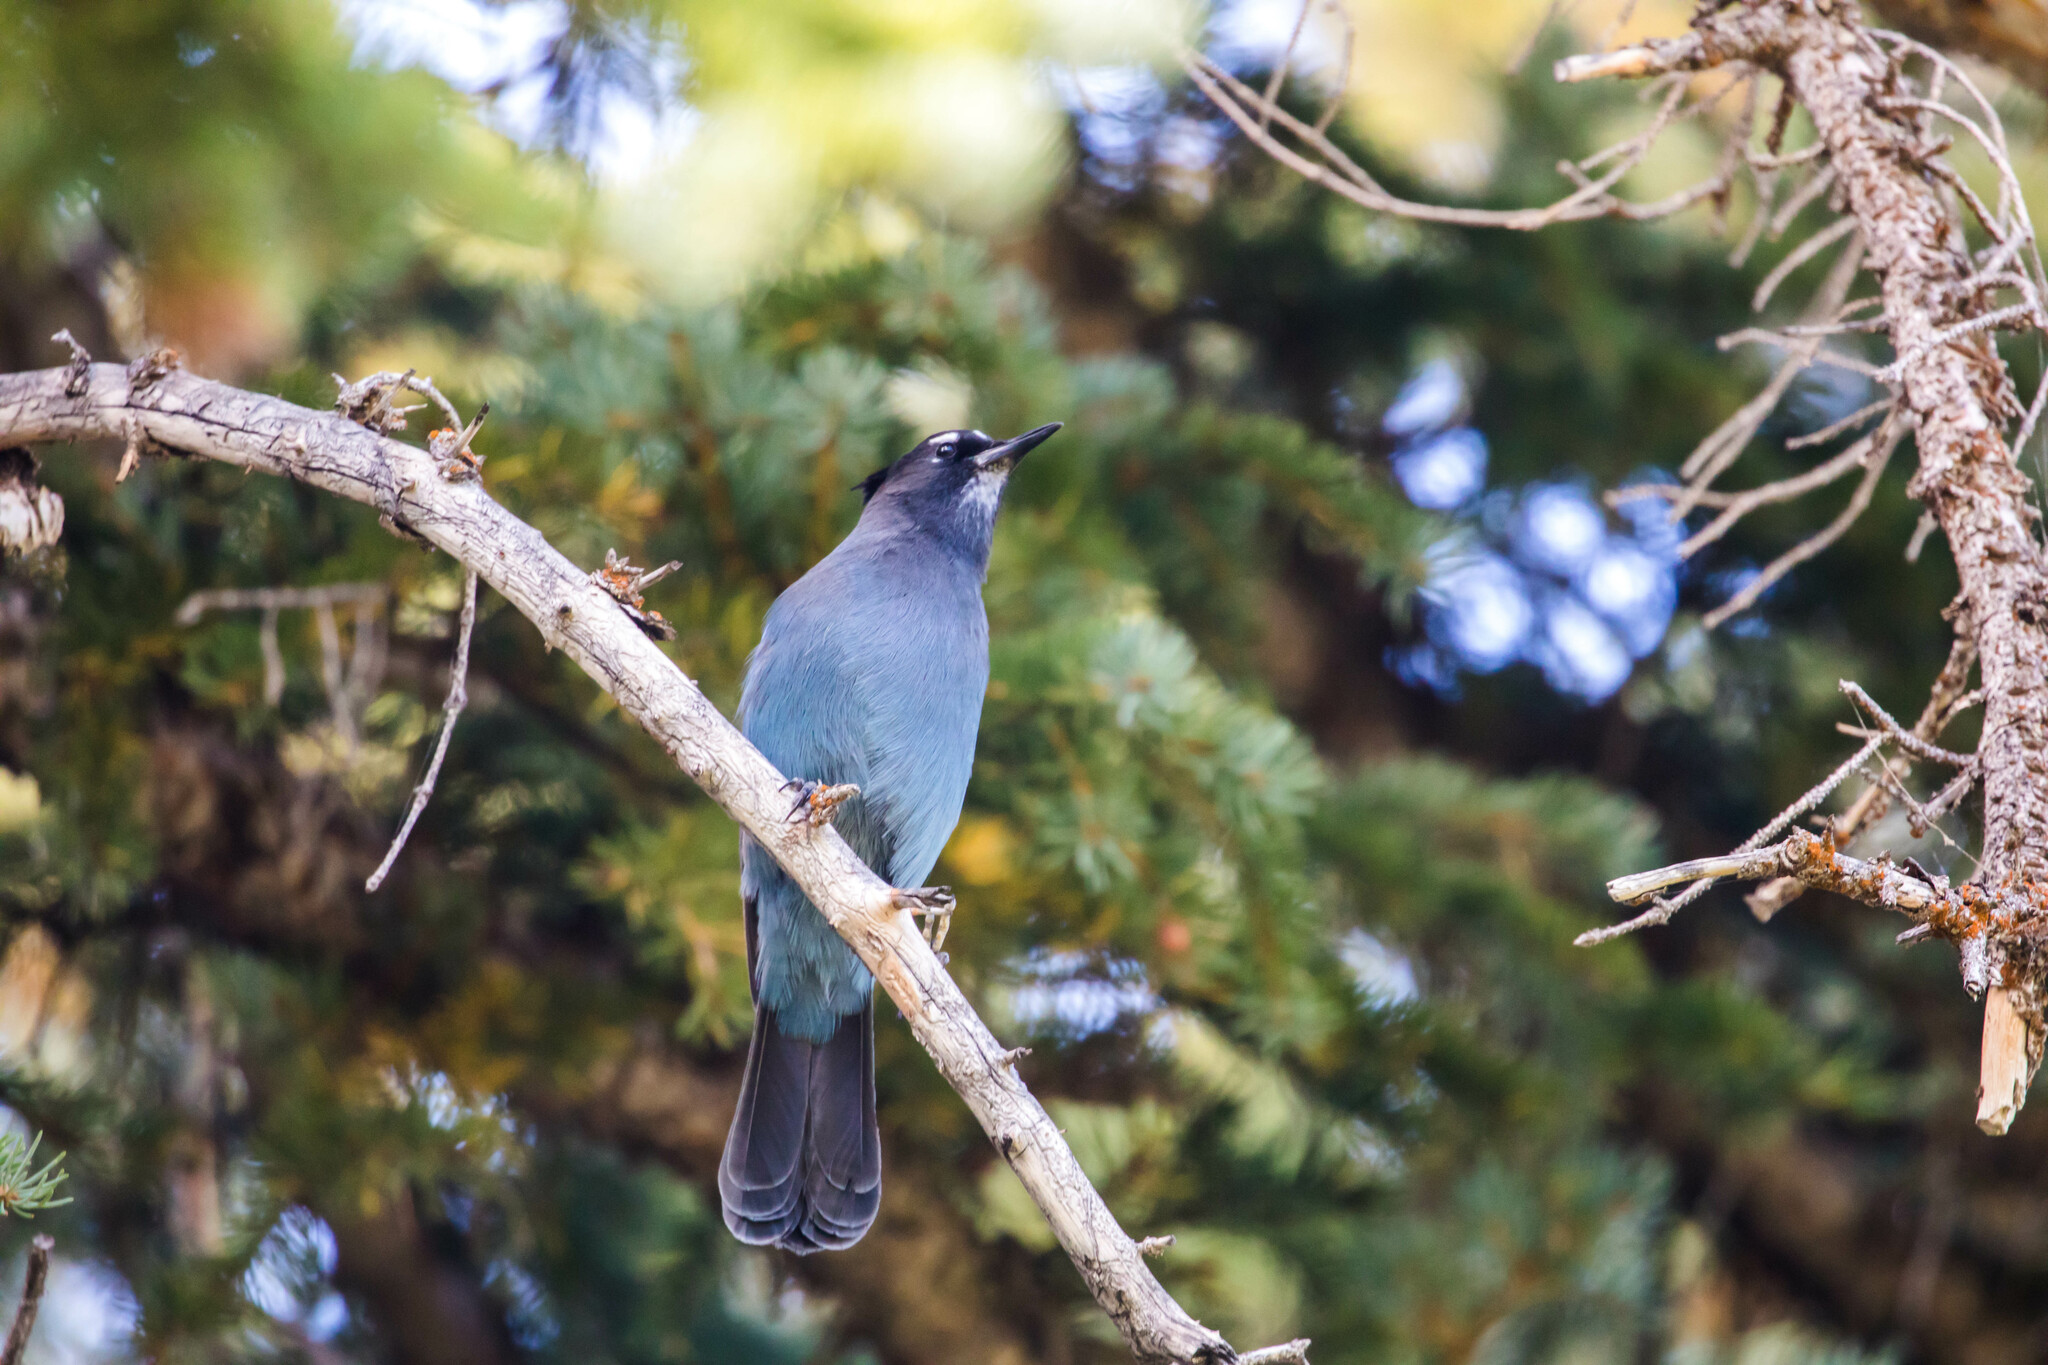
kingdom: Animalia
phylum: Chordata
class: Aves
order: Passeriformes
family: Corvidae
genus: Cyanocitta
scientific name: Cyanocitta stelleri
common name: Steller's jay
